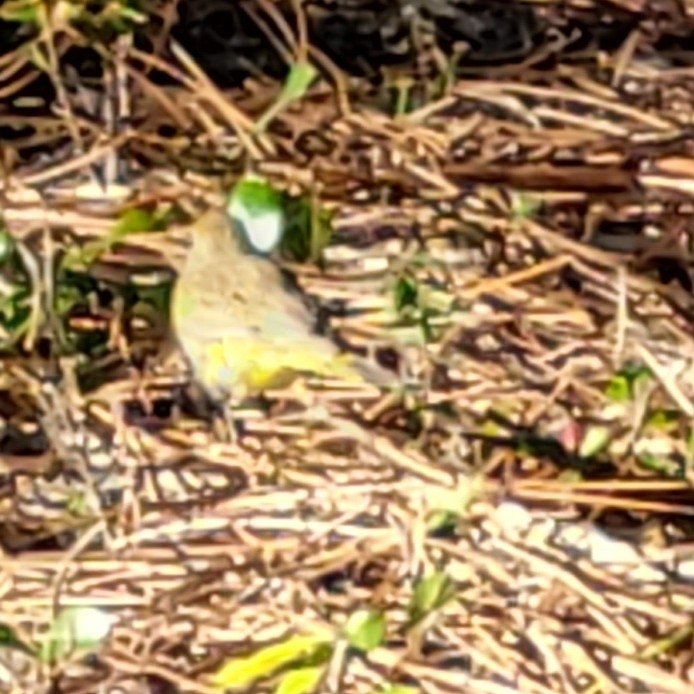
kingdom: Animalia
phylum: Chordata
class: Aves
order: Passeriformes
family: Parulidae
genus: Setophaga
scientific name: Setophaga palmarum
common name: Palm warbler
